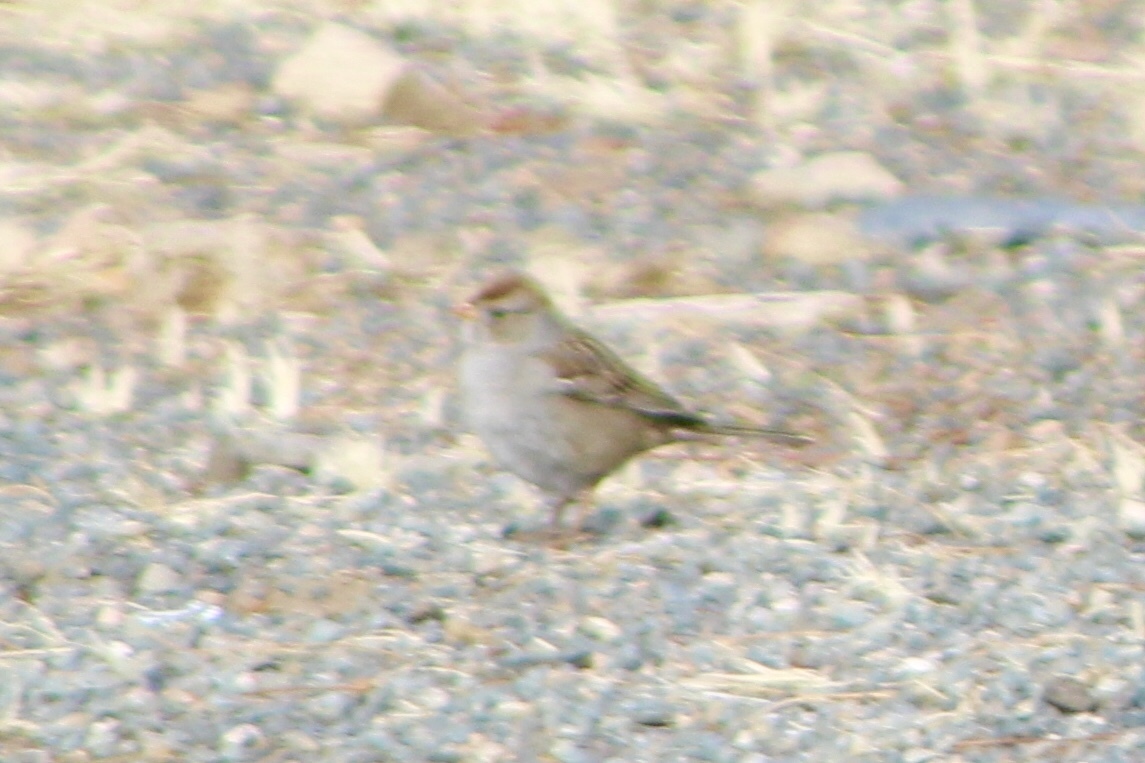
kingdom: Animalia
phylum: Chordata
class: Aves
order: Passeriformes
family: Passerellidae
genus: Zonotrichia
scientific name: Zonotrichia leucophrys
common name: White-crowned sparrow
